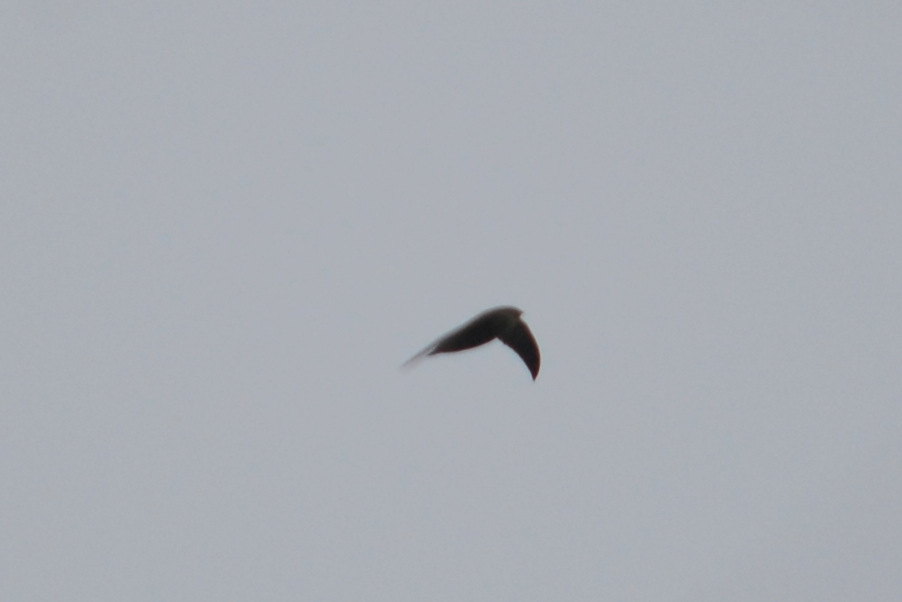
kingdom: Animalia
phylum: Chordata
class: Aves
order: Apodiformes
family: Apodidae
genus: Chaetura
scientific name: Chaetura meridionalis
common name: Sick's swift
